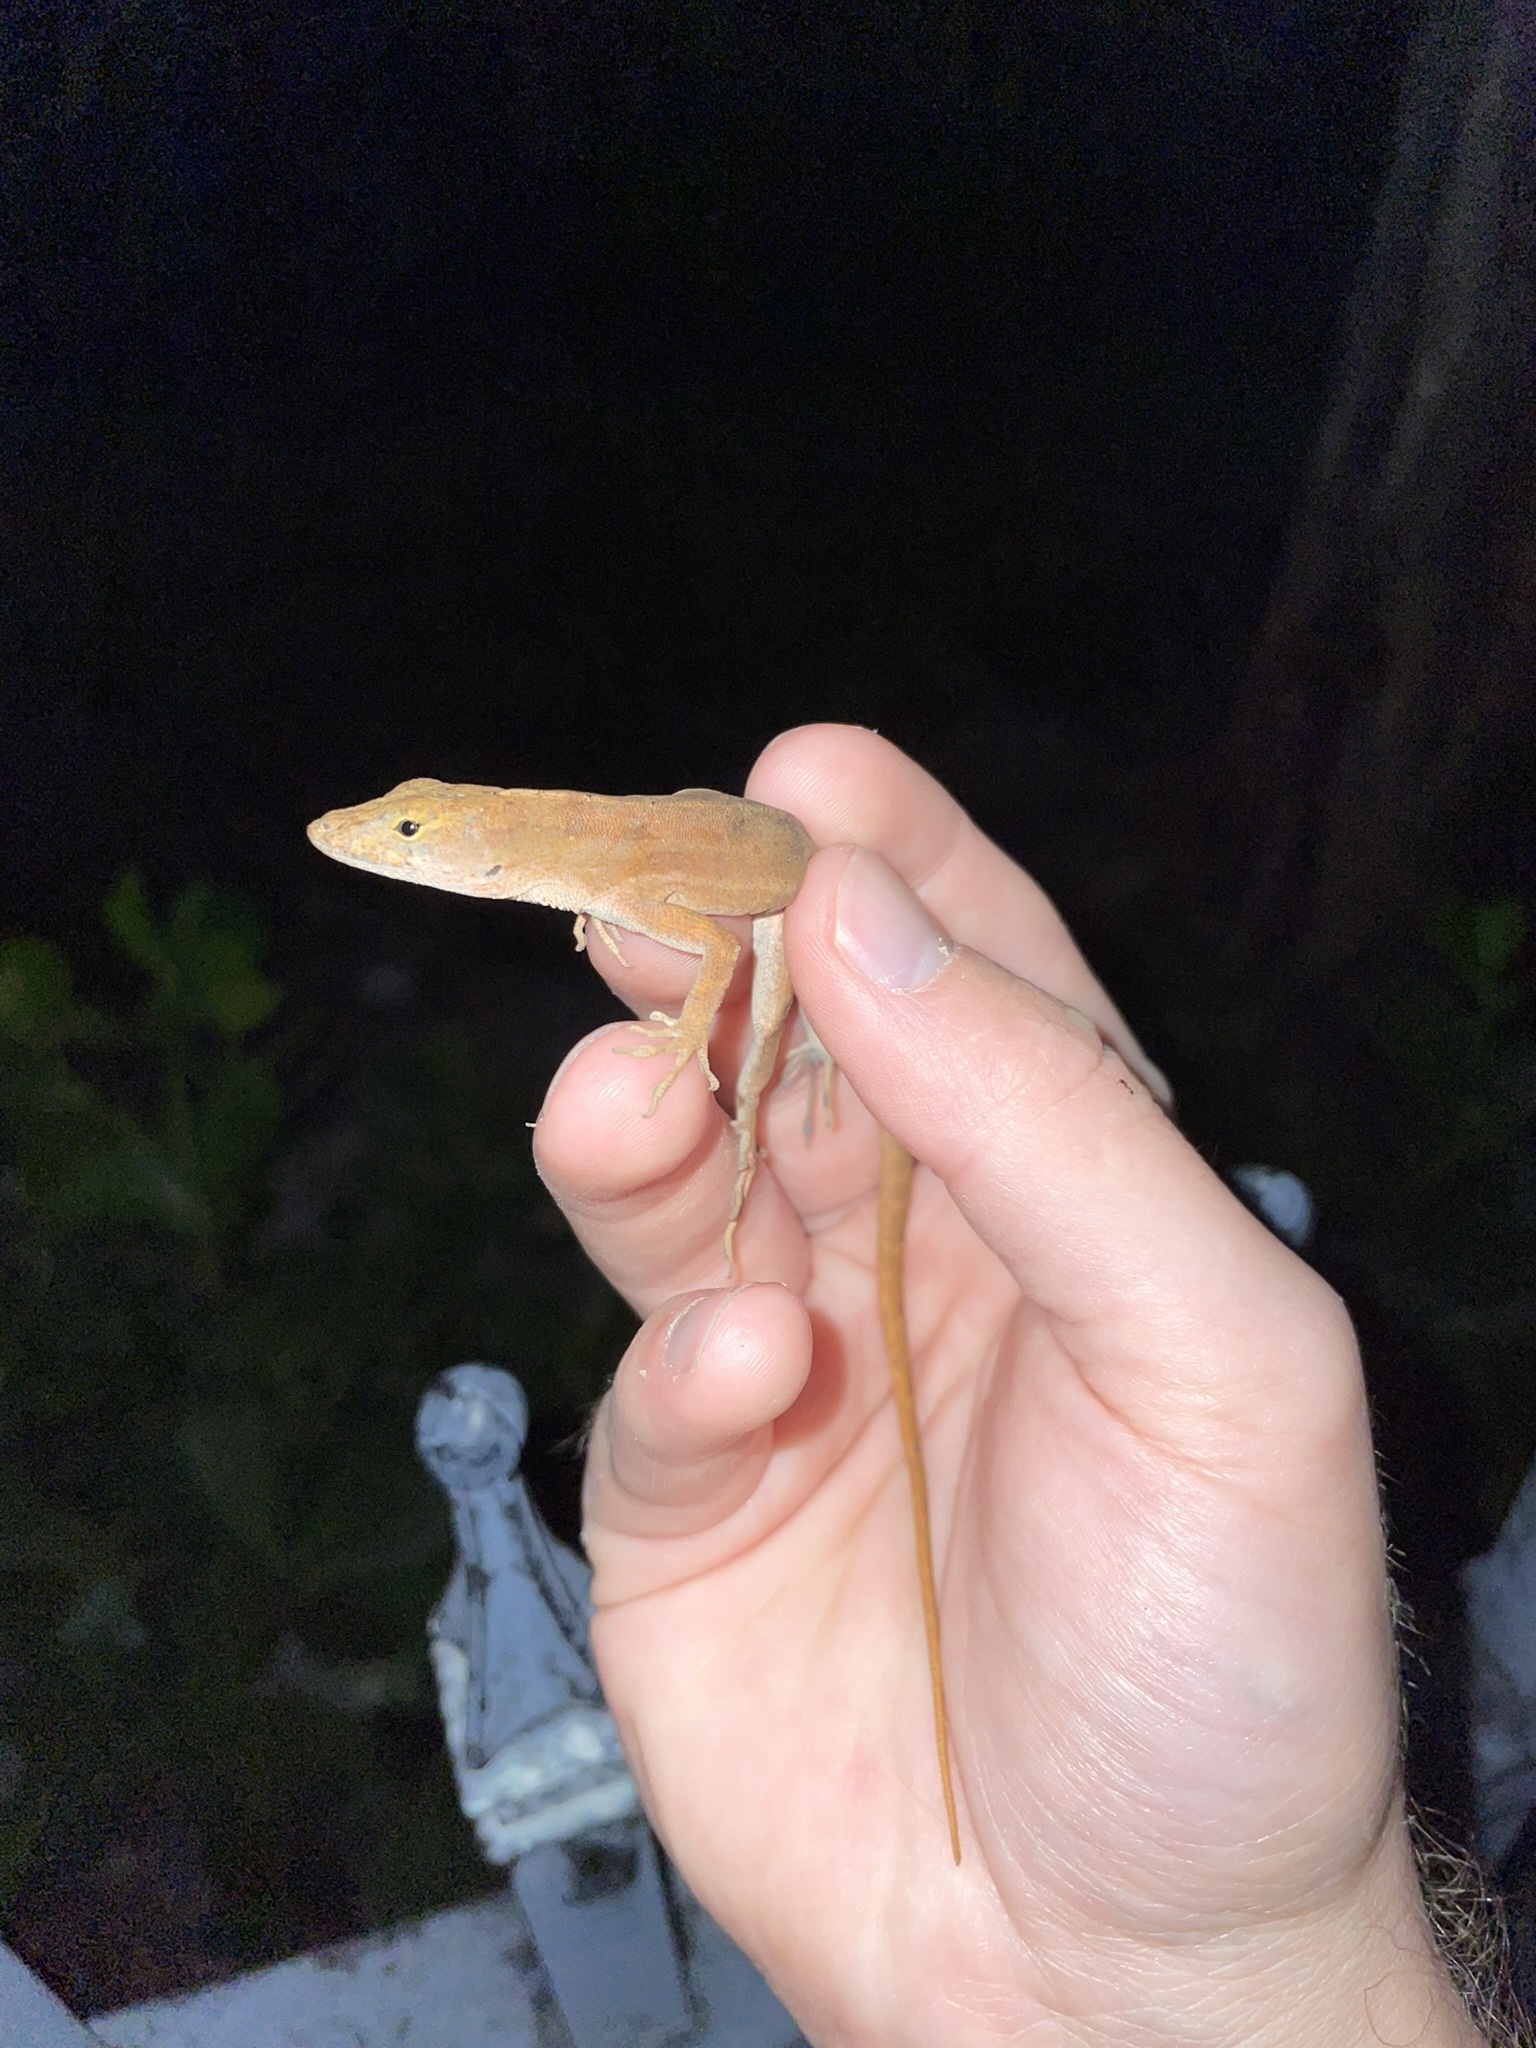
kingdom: Animalia
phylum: Chordata
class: Squamata
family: Dactyloidae
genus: Anolis
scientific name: Anolis sagrei
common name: Brown anole
